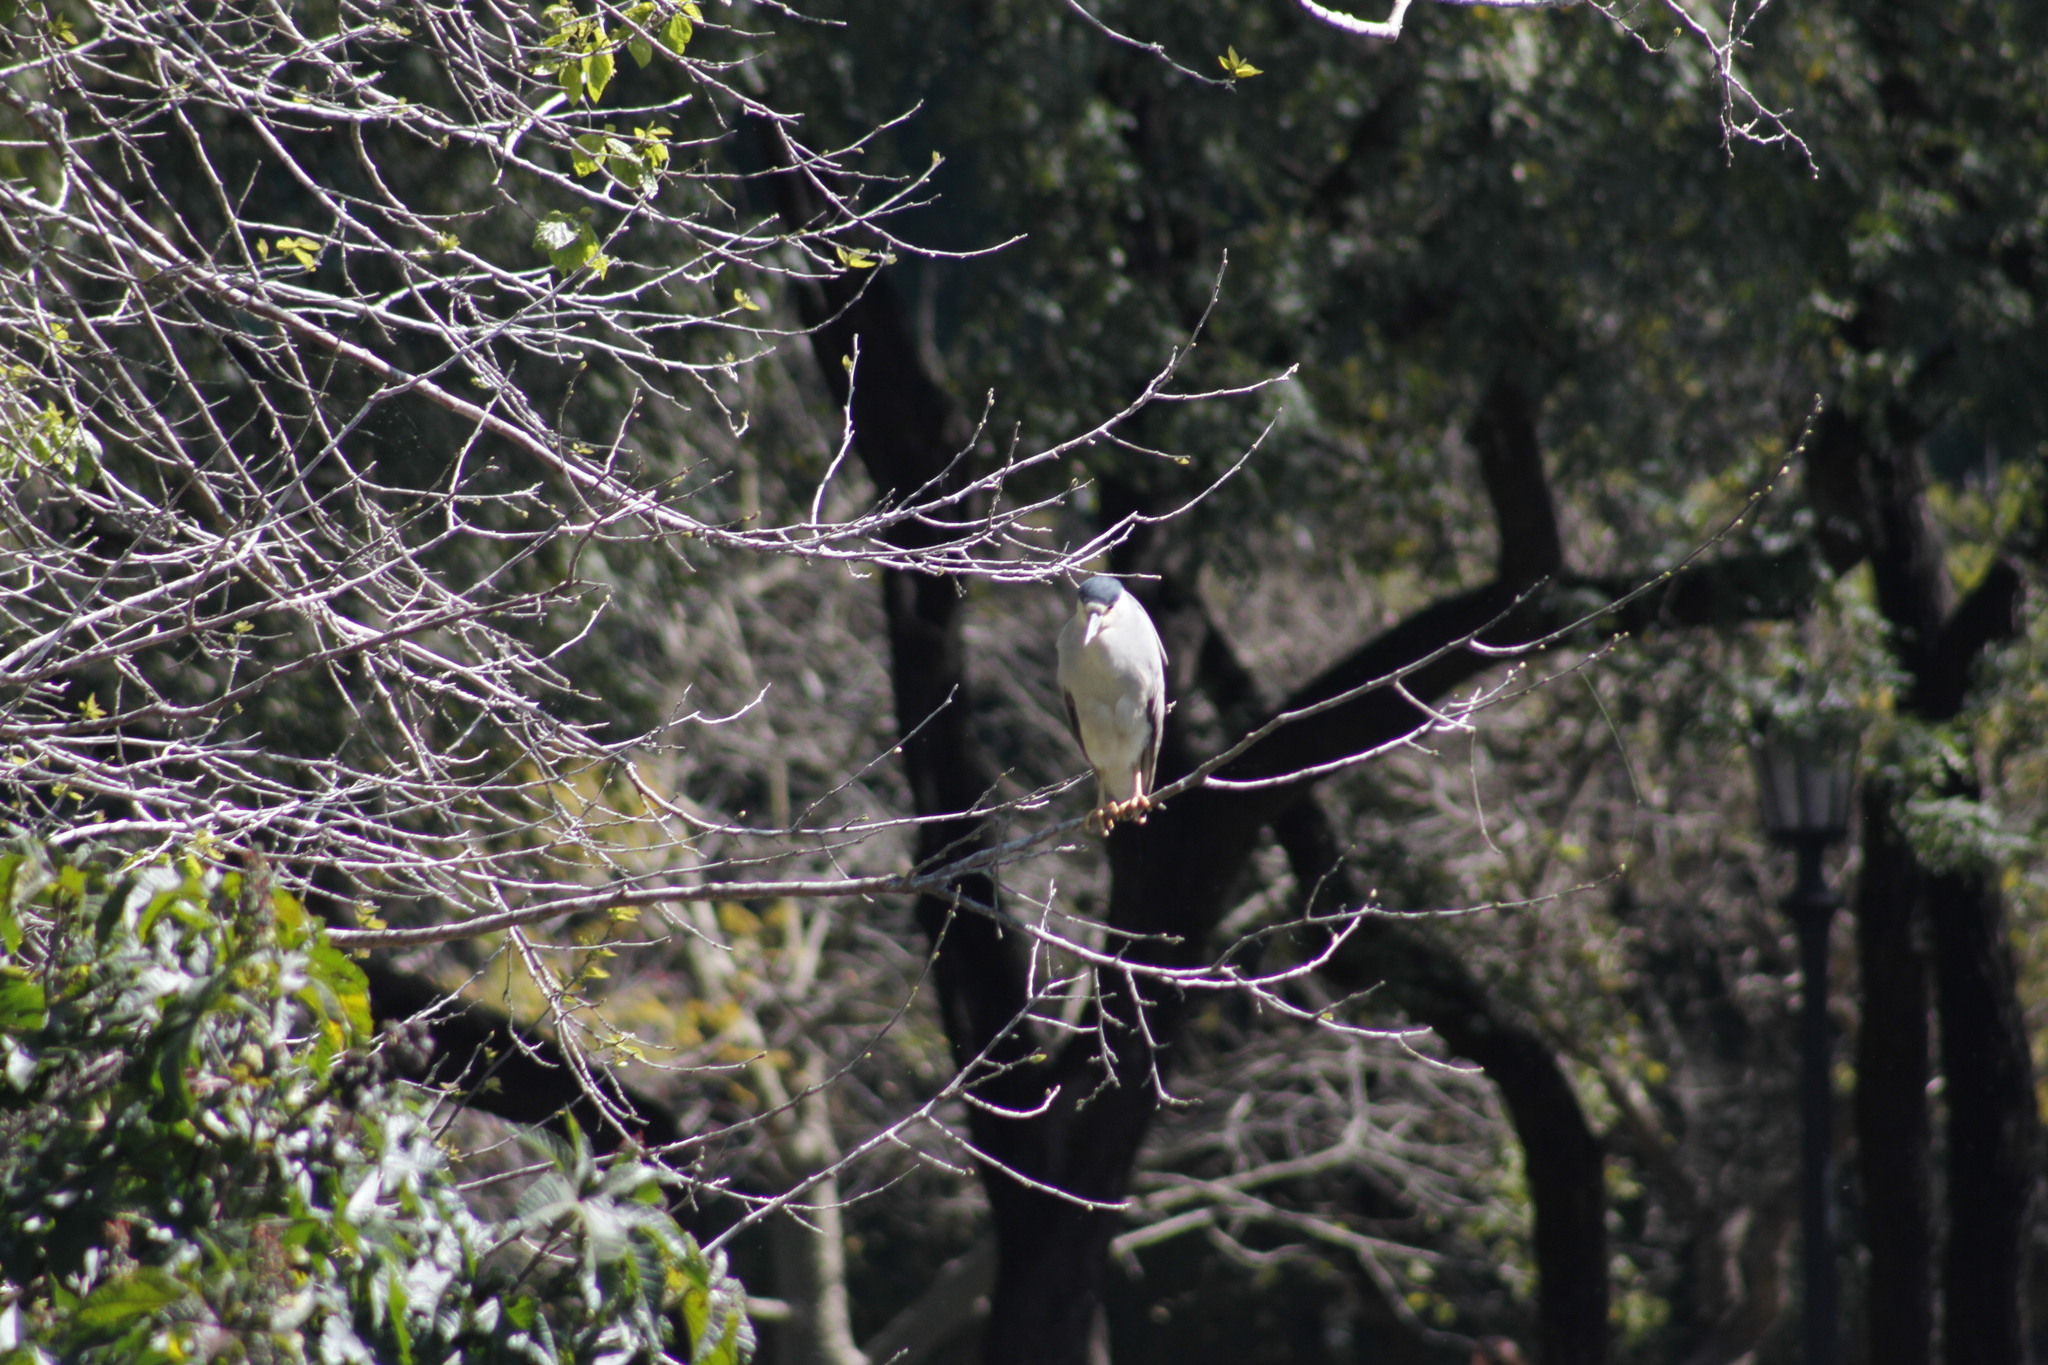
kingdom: Animalia
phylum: Chordata
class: Aves
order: Pelecaniformes
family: Ardeidae
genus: Nycticorax
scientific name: Nycticorax nycticorax
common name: Black-crowned night heron
